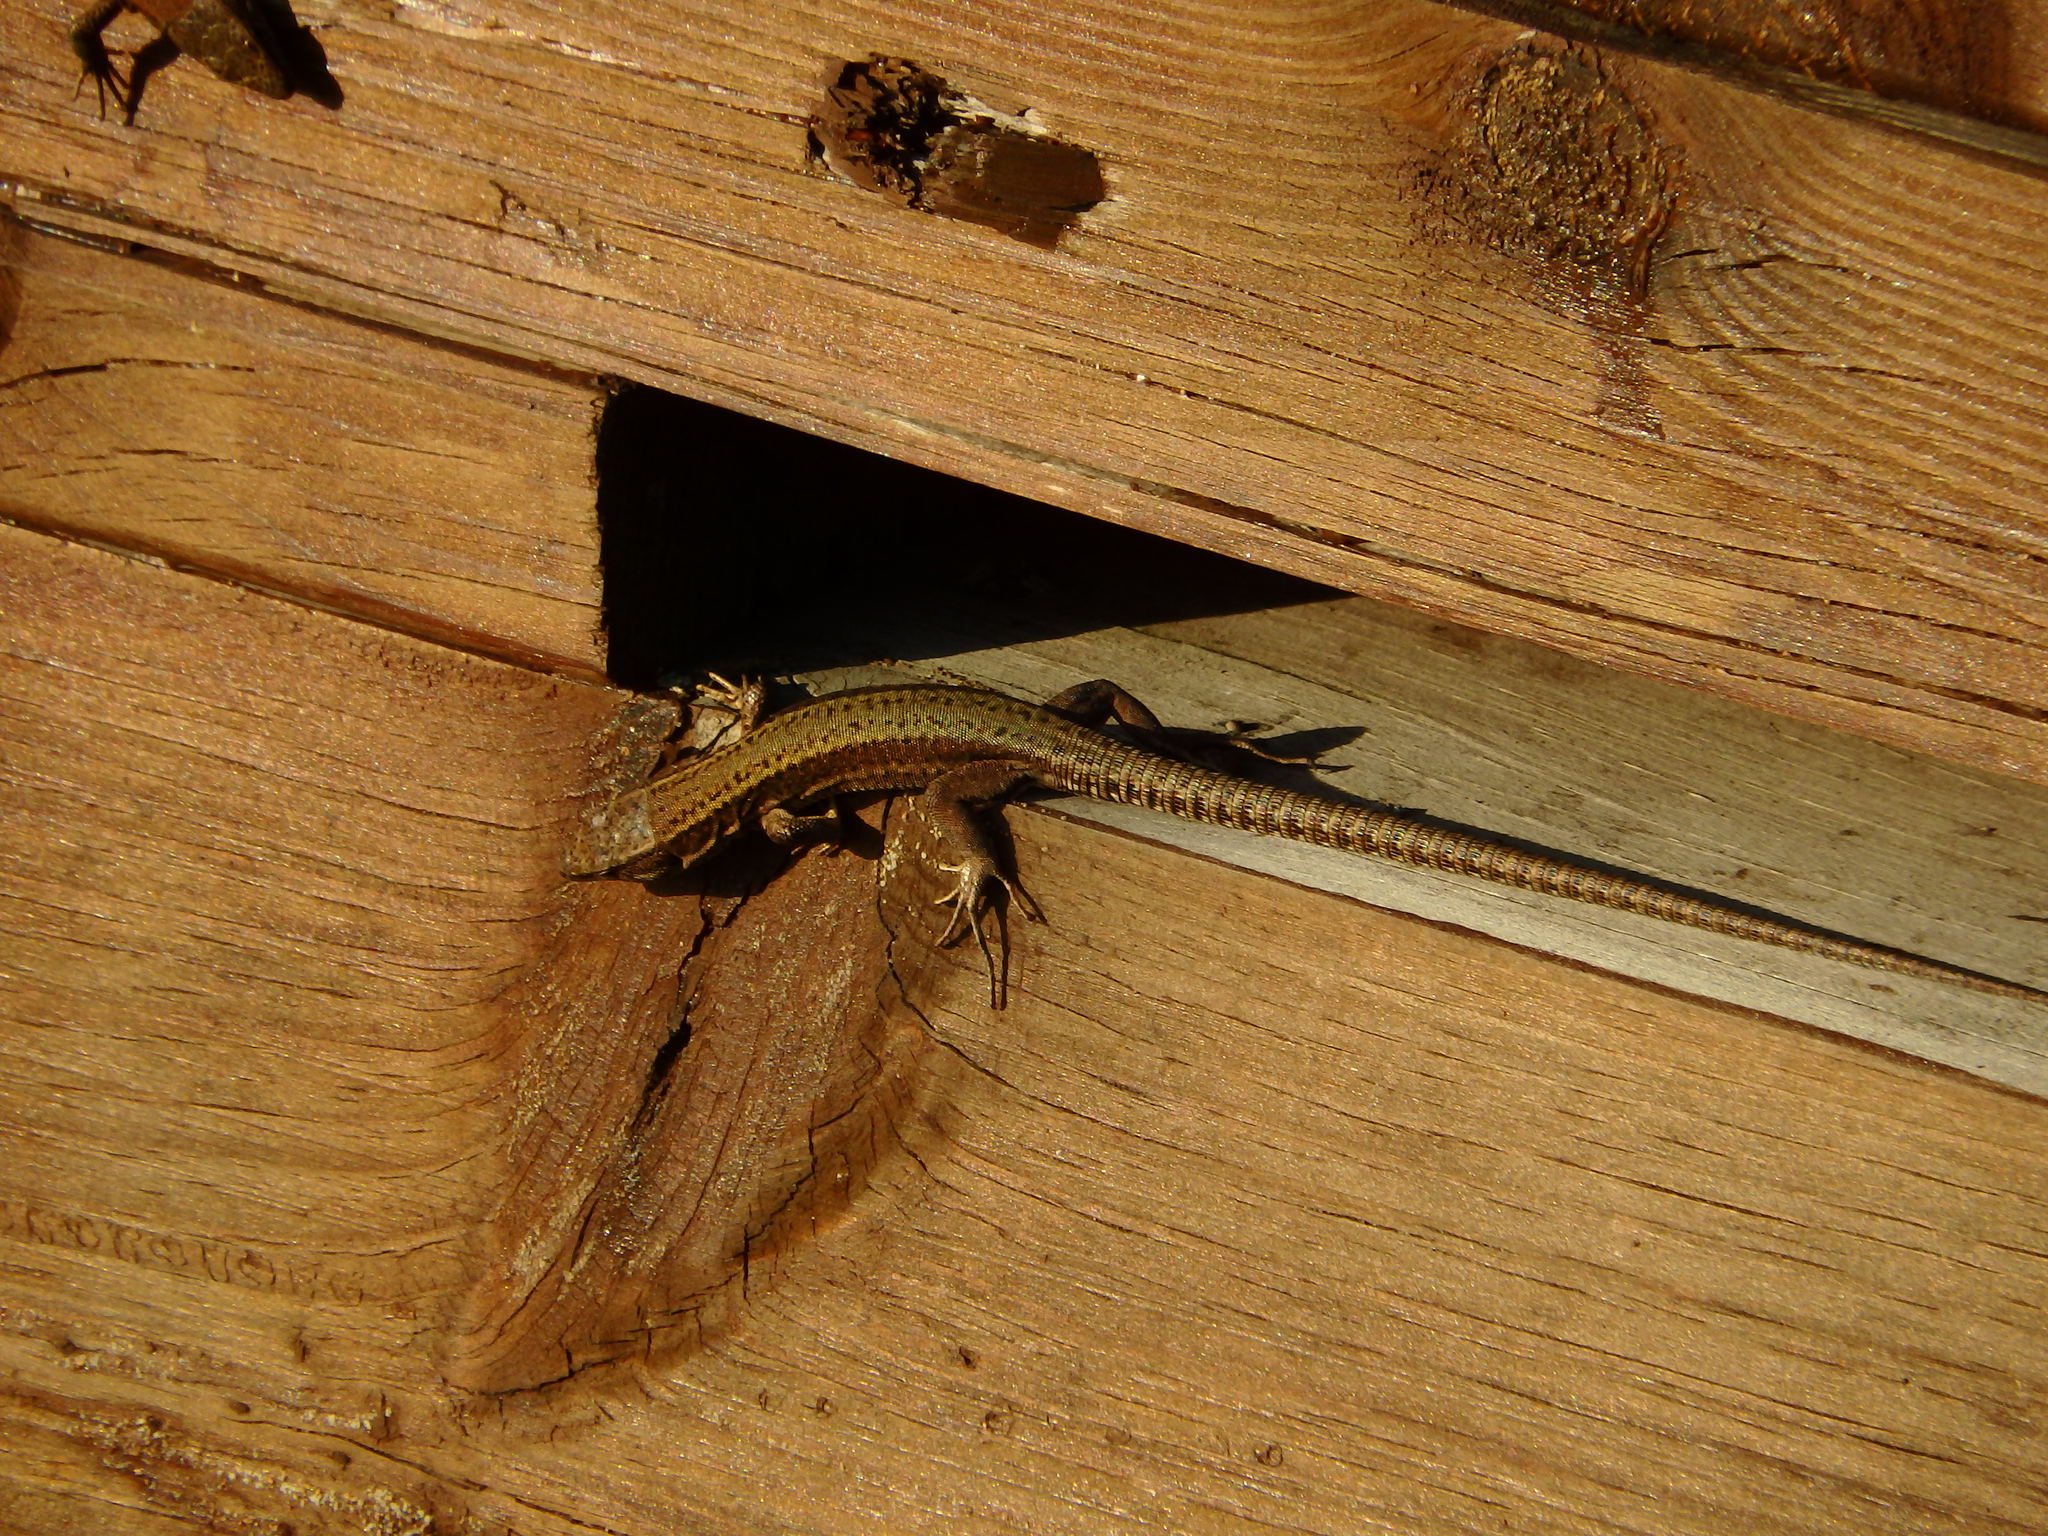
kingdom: Animalia
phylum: Chordata
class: Squamata
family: Lacertidae
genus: Podarcis
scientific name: Podarcis bocagei
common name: Bocage's wall lizard
